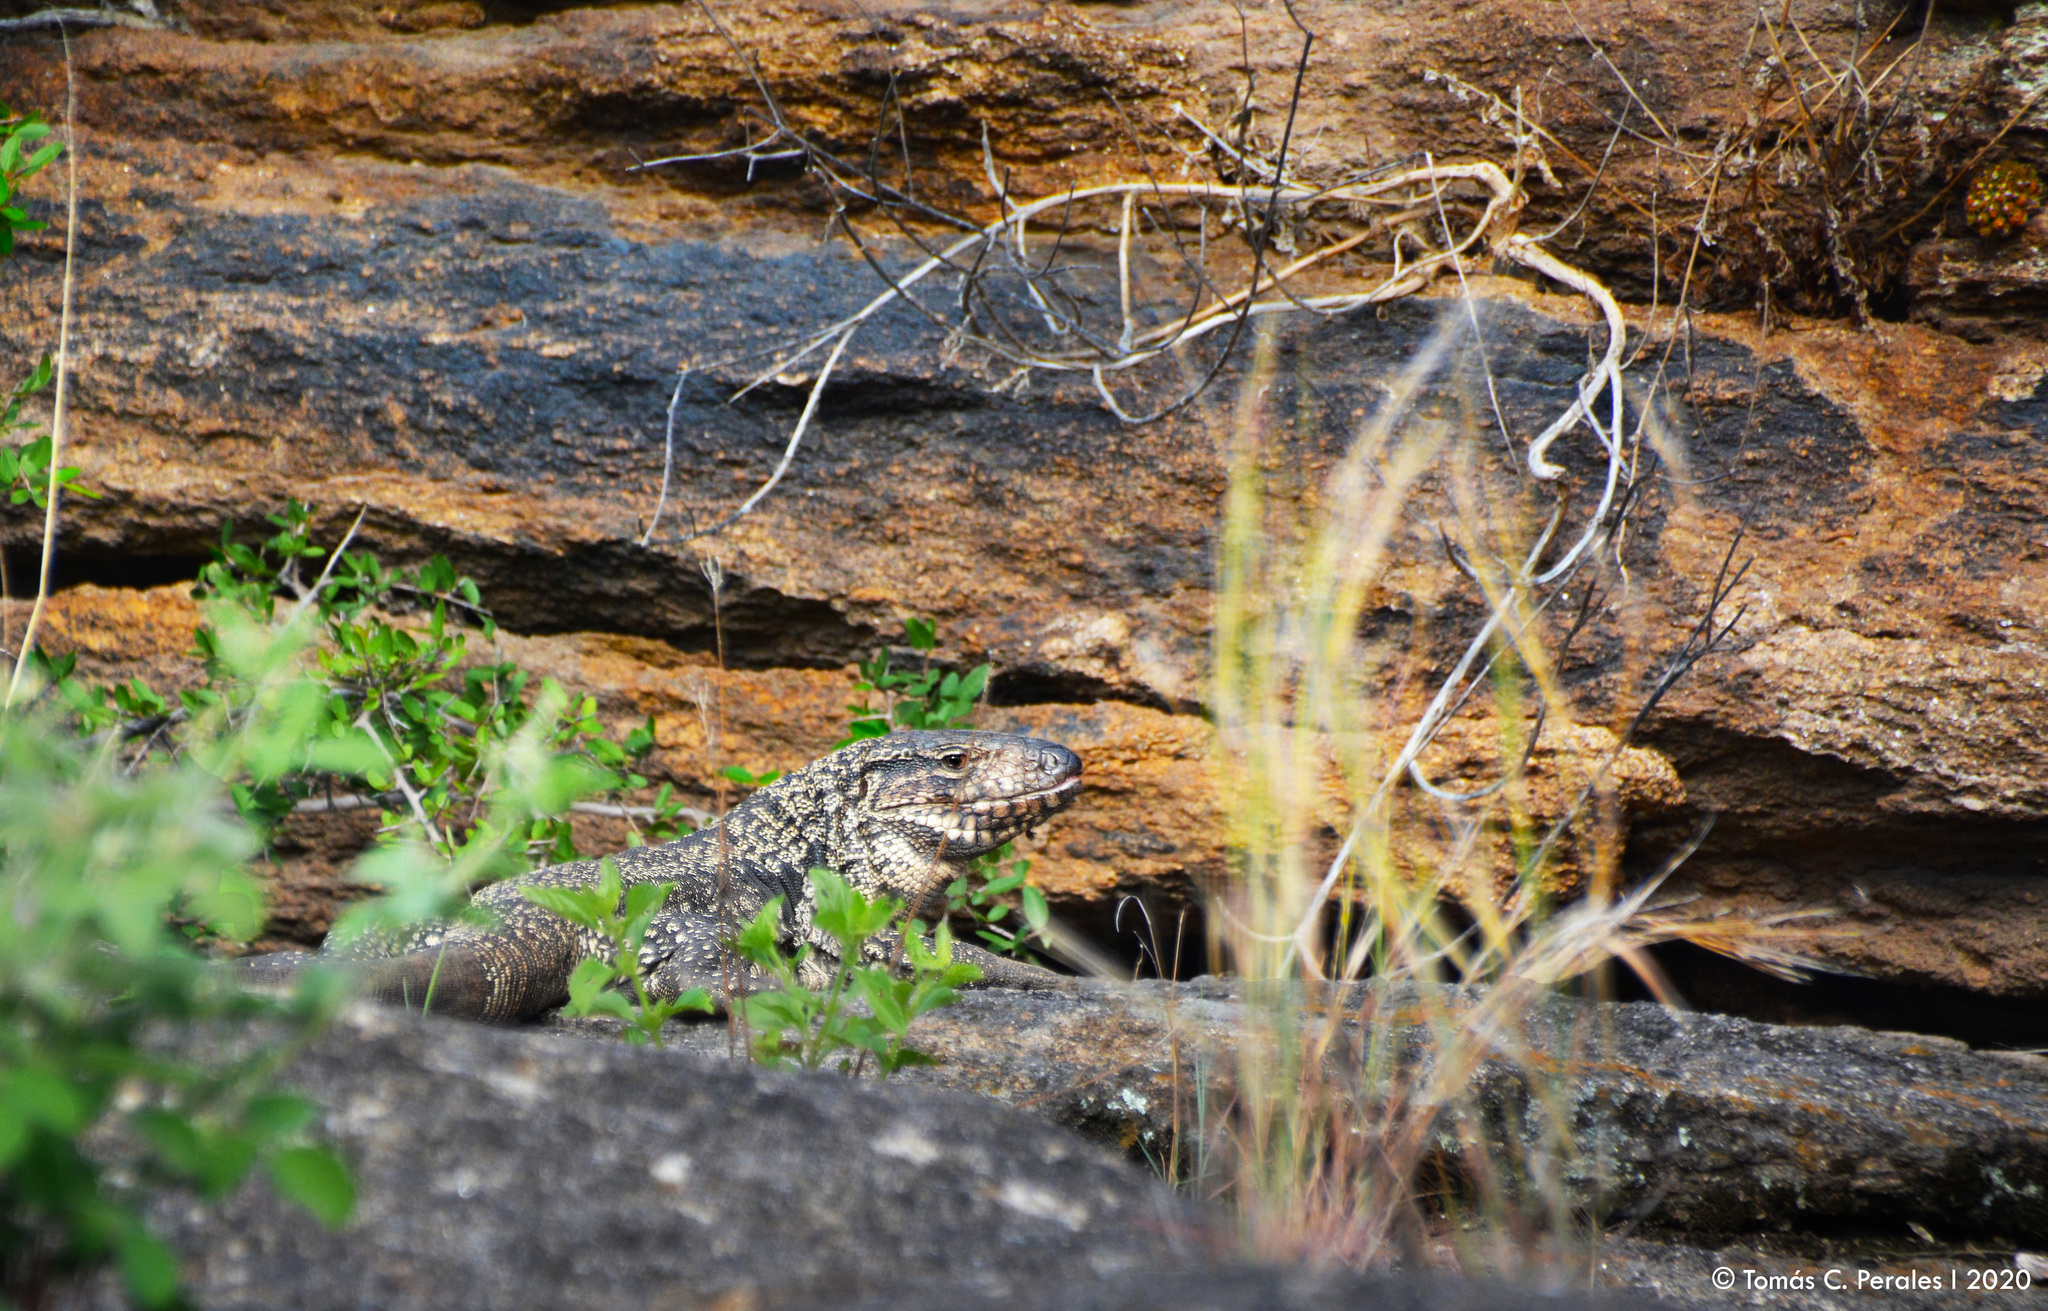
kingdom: Animalia
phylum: Chordata
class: Squamata
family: Teiidae
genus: Salvator
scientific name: Salvator merianae
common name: Argentine black and white tegu
